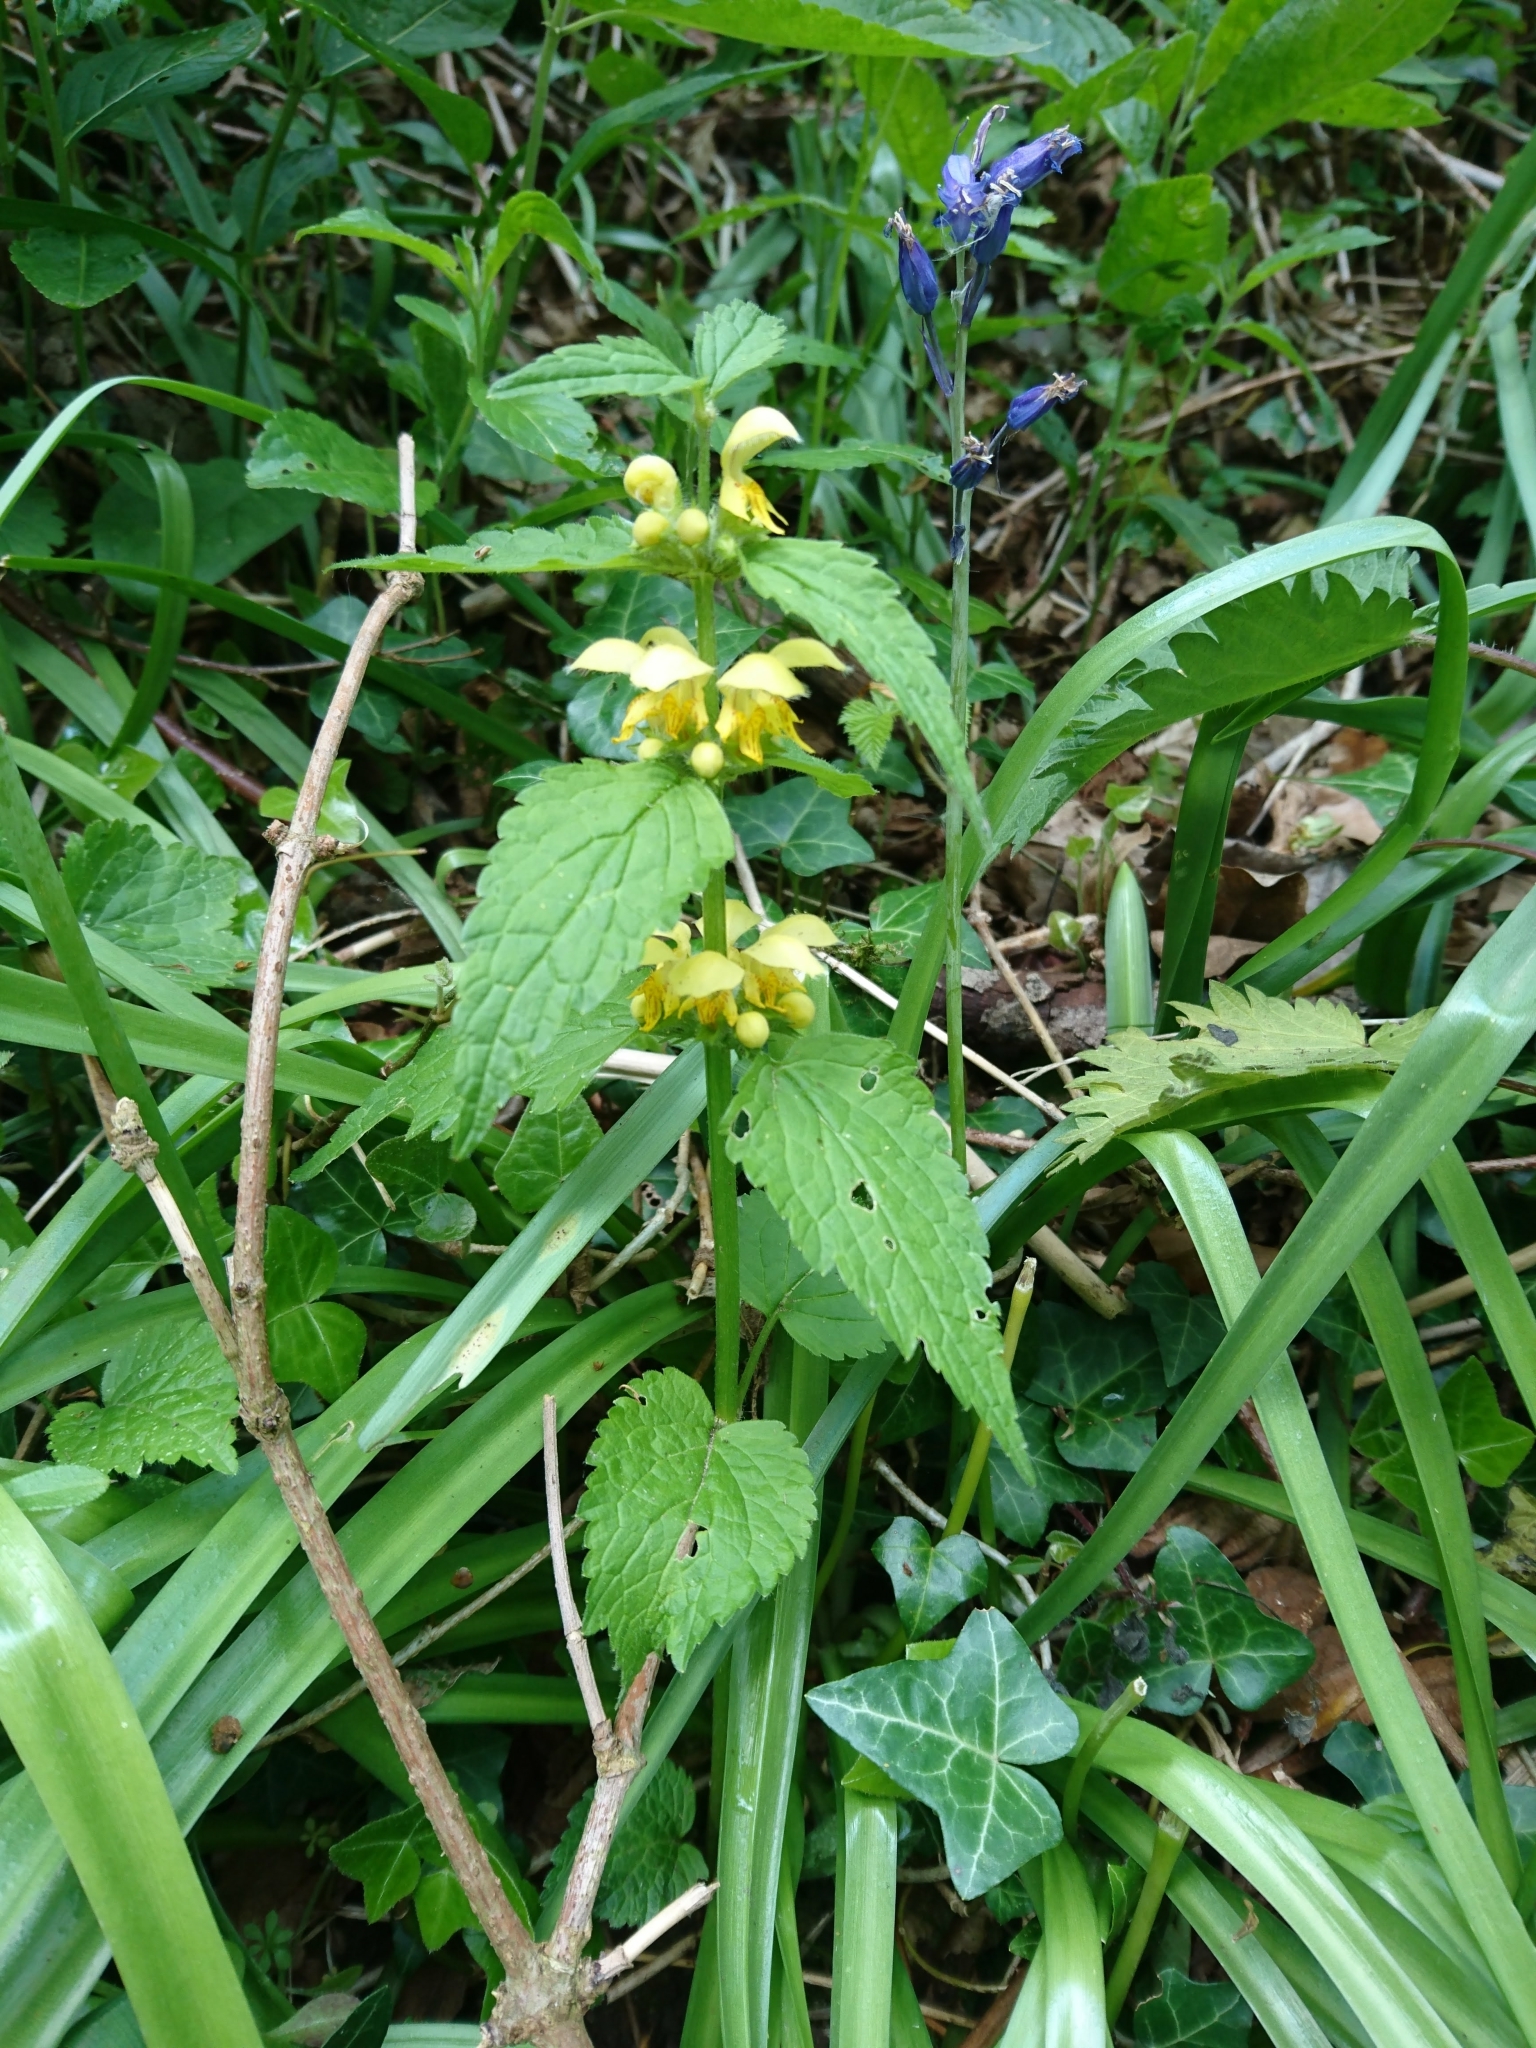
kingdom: Plantae
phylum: Tracheophyta
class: Magnoliopsida
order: Lamiales
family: Lamiaceae
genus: Lamium
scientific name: Lamium galeobdolon
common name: Yellow archangel
